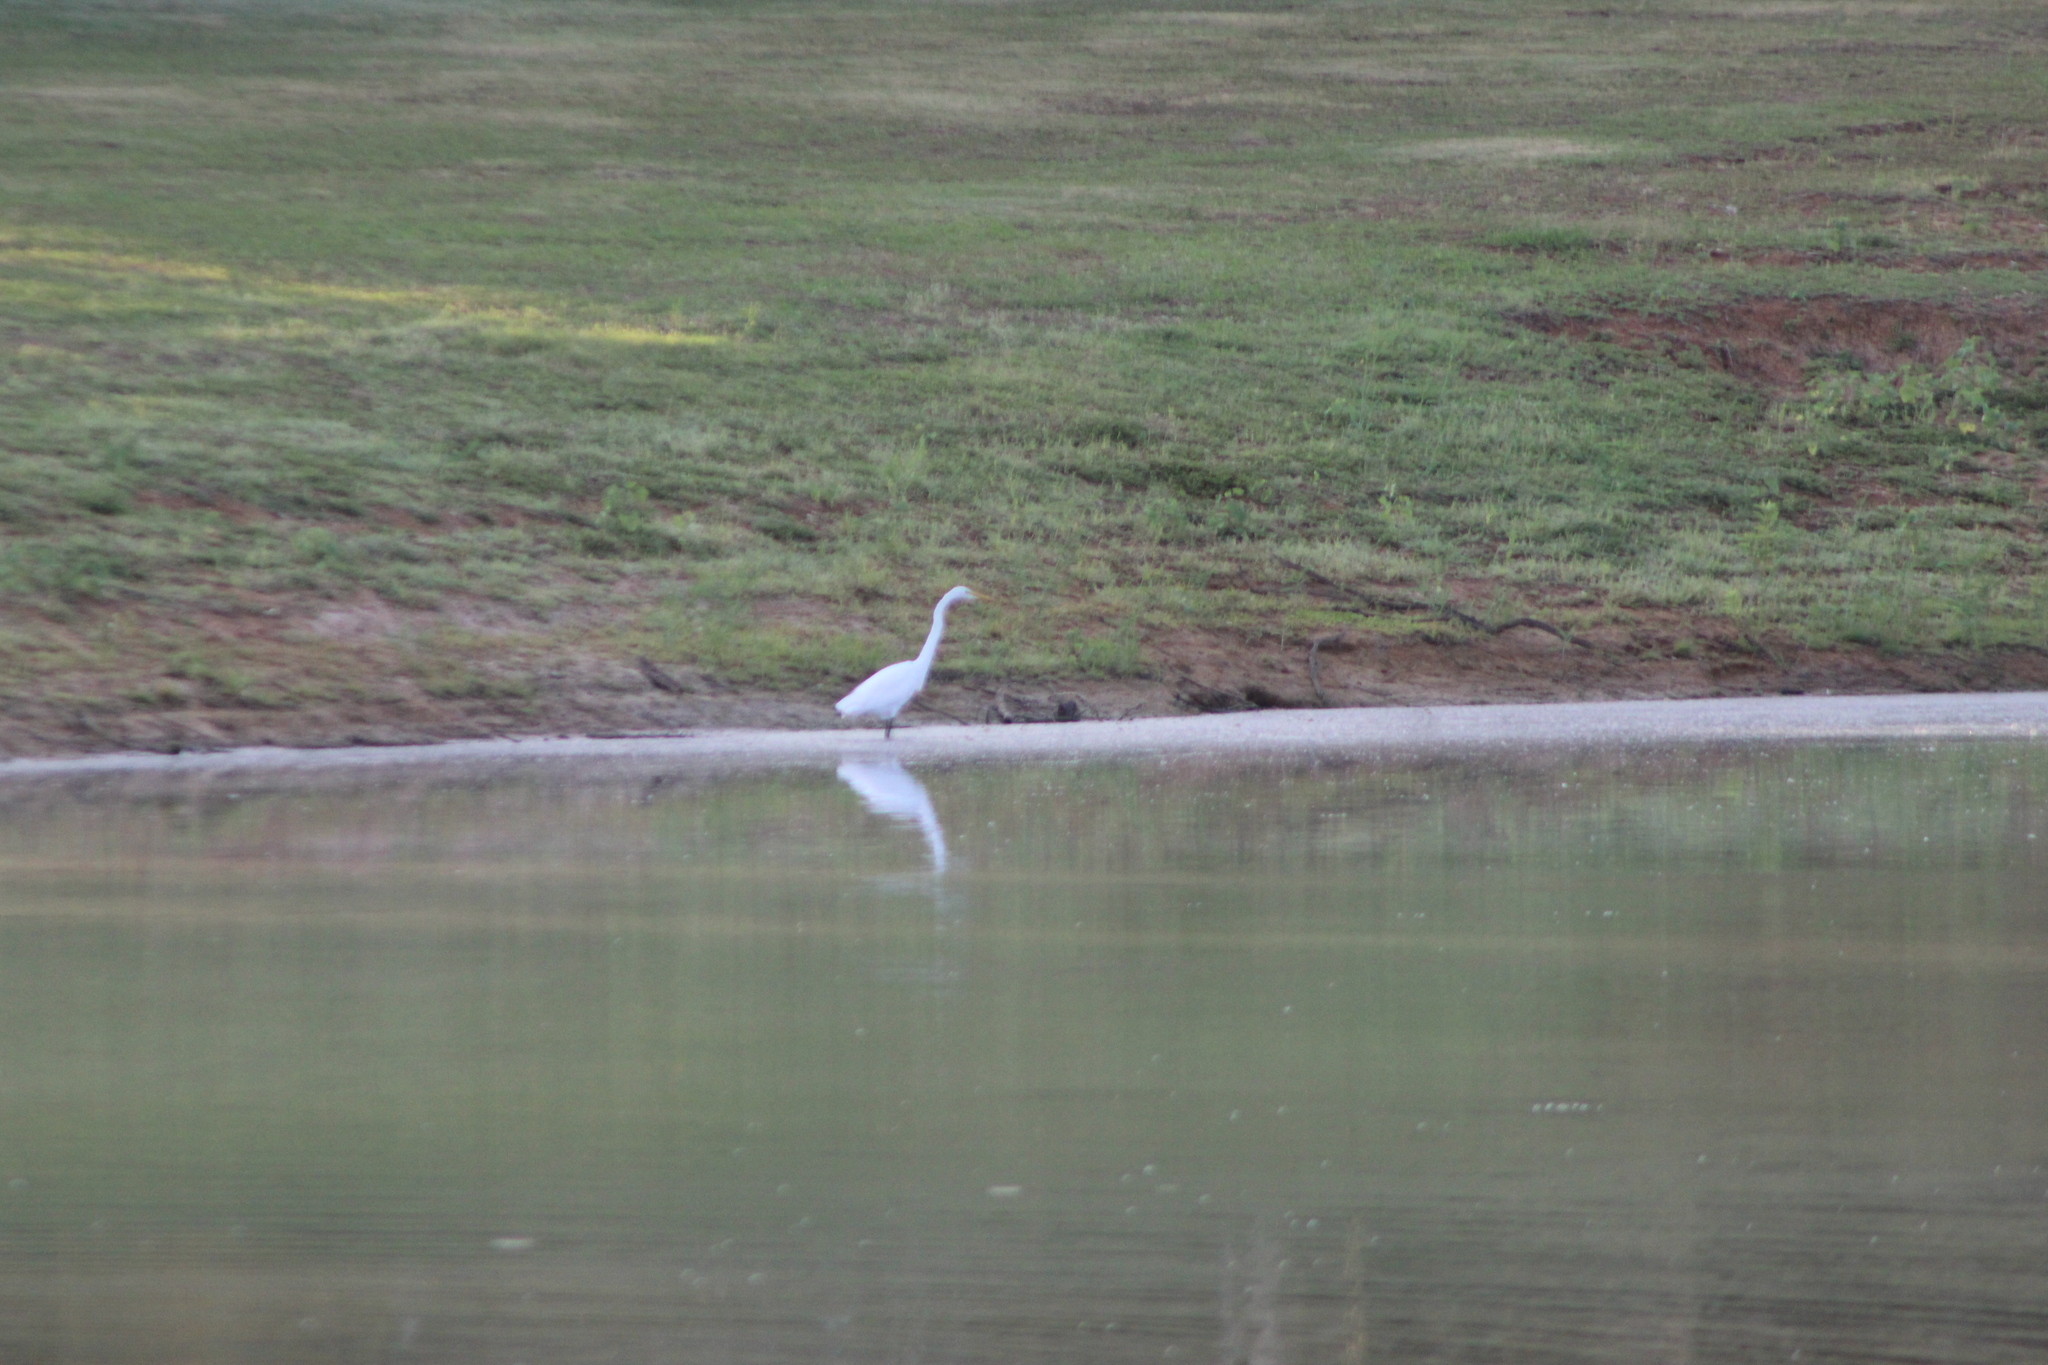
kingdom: Animalia
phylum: Chordata
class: Aves
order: Pelecaniformes
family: Ardeidae
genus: Ardea
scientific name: Ardea alba
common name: Great egret
